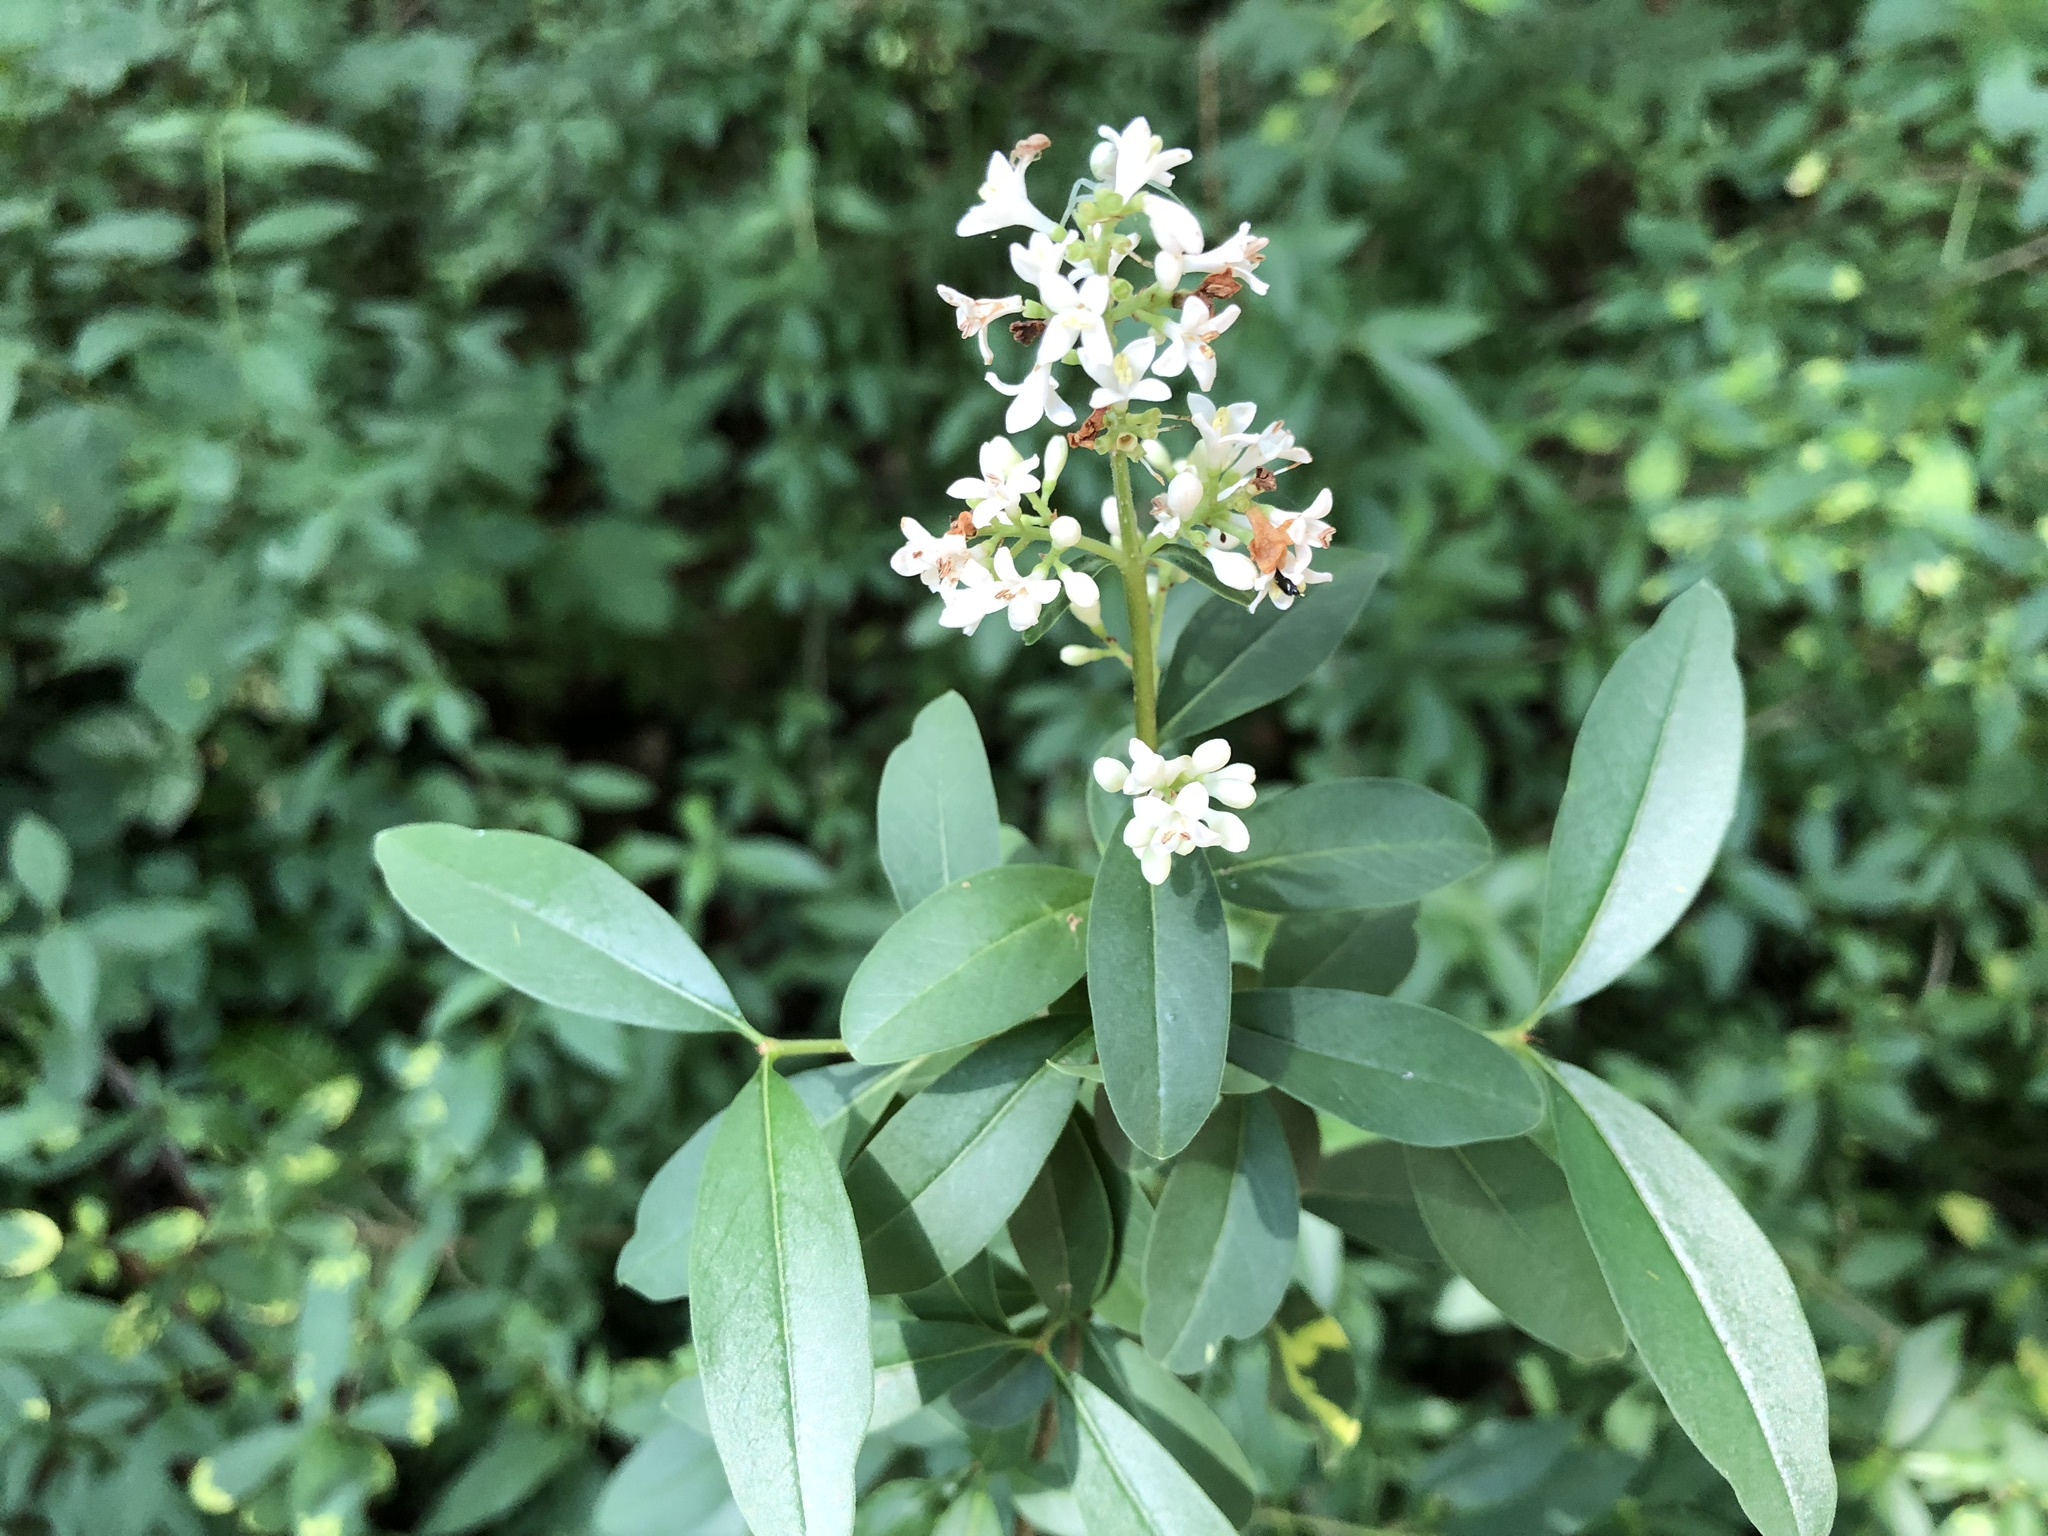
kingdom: Plantae
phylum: Tracheophyta
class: Magnoliopsida
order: Lamiales
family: Oleaceae
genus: Ligustrum
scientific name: Ligustrum vulgare
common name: Wild privet
